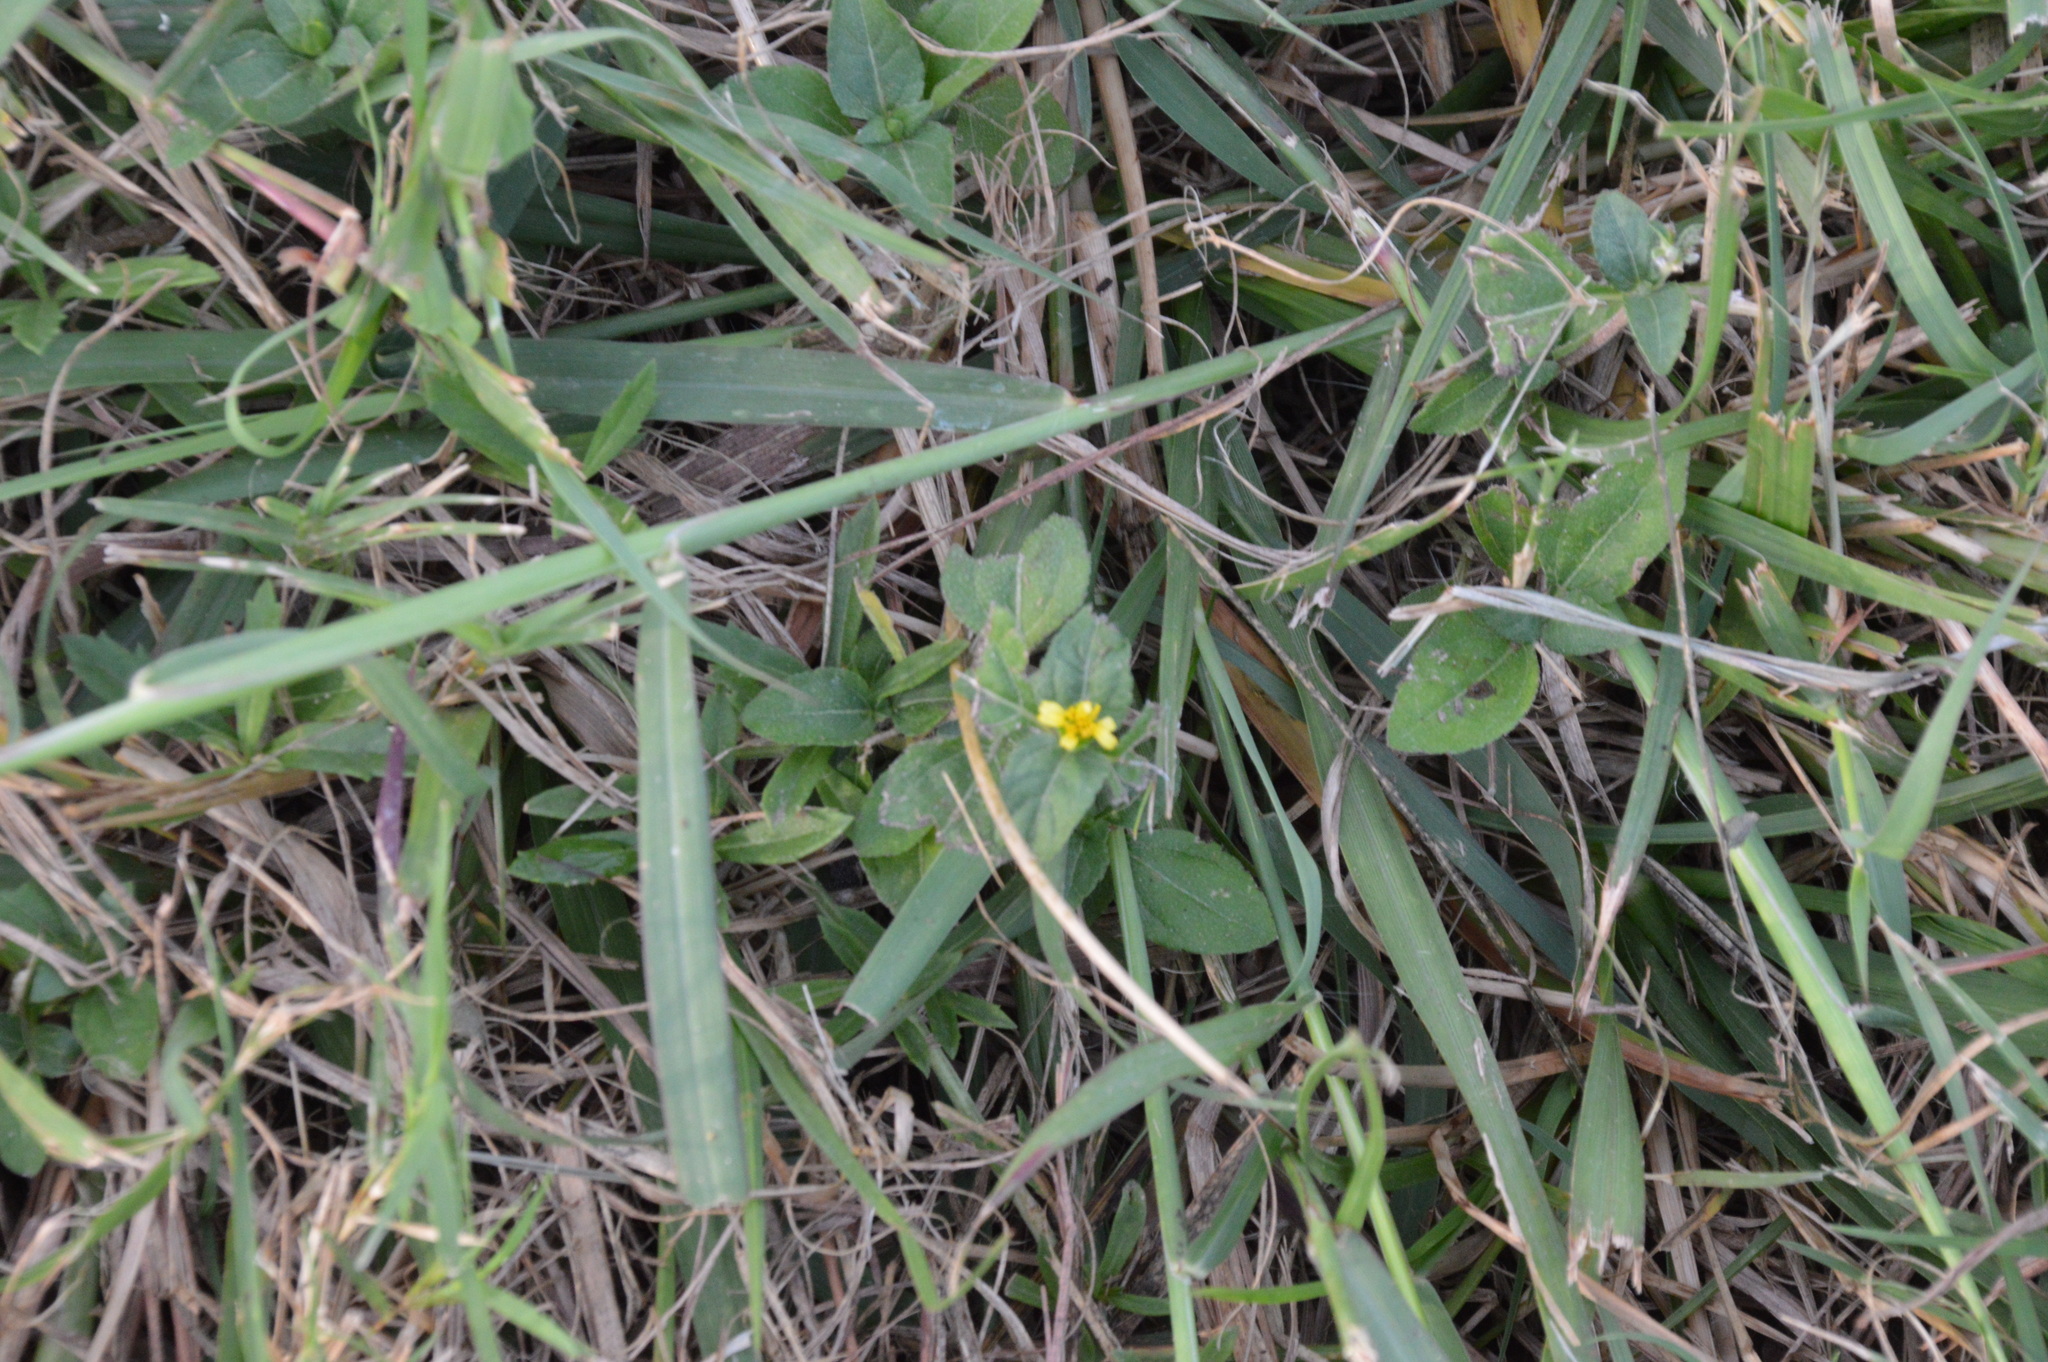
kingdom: Plantae
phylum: Tracheophyta
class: Magnoliopsida
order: Asterales
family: Asteraceae
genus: Calyptocarpus
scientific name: Calyptocarpus vialis
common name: Straggler daisy
